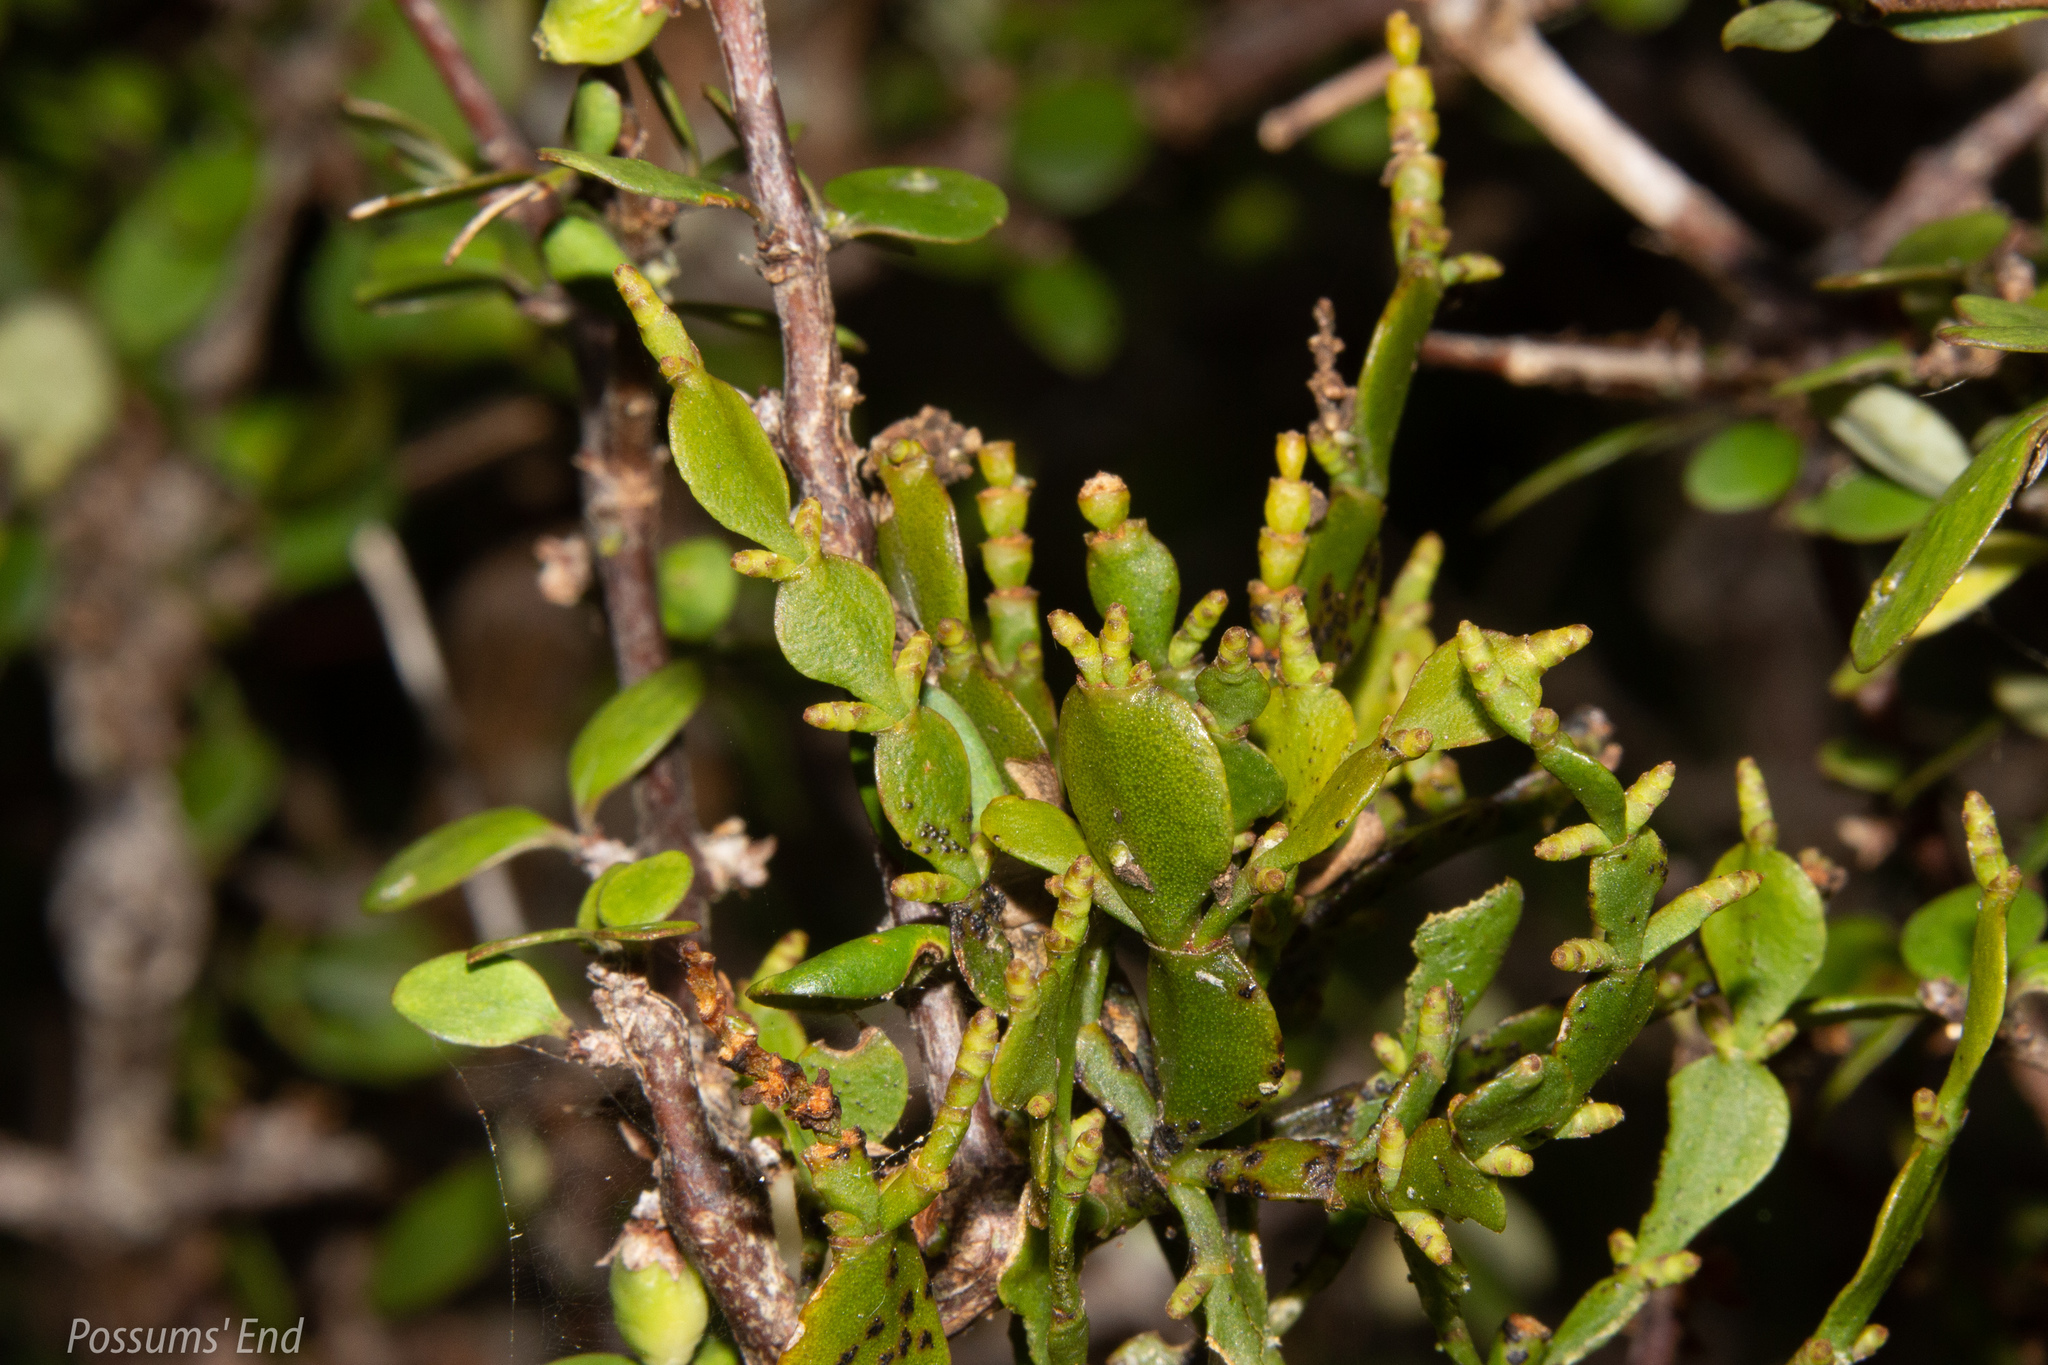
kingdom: Plantae
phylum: Tracheophyta
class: Magnoliopsida
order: Santalales
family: Viscaceae
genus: Korthalsella
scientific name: Korthalsella lindsayi
